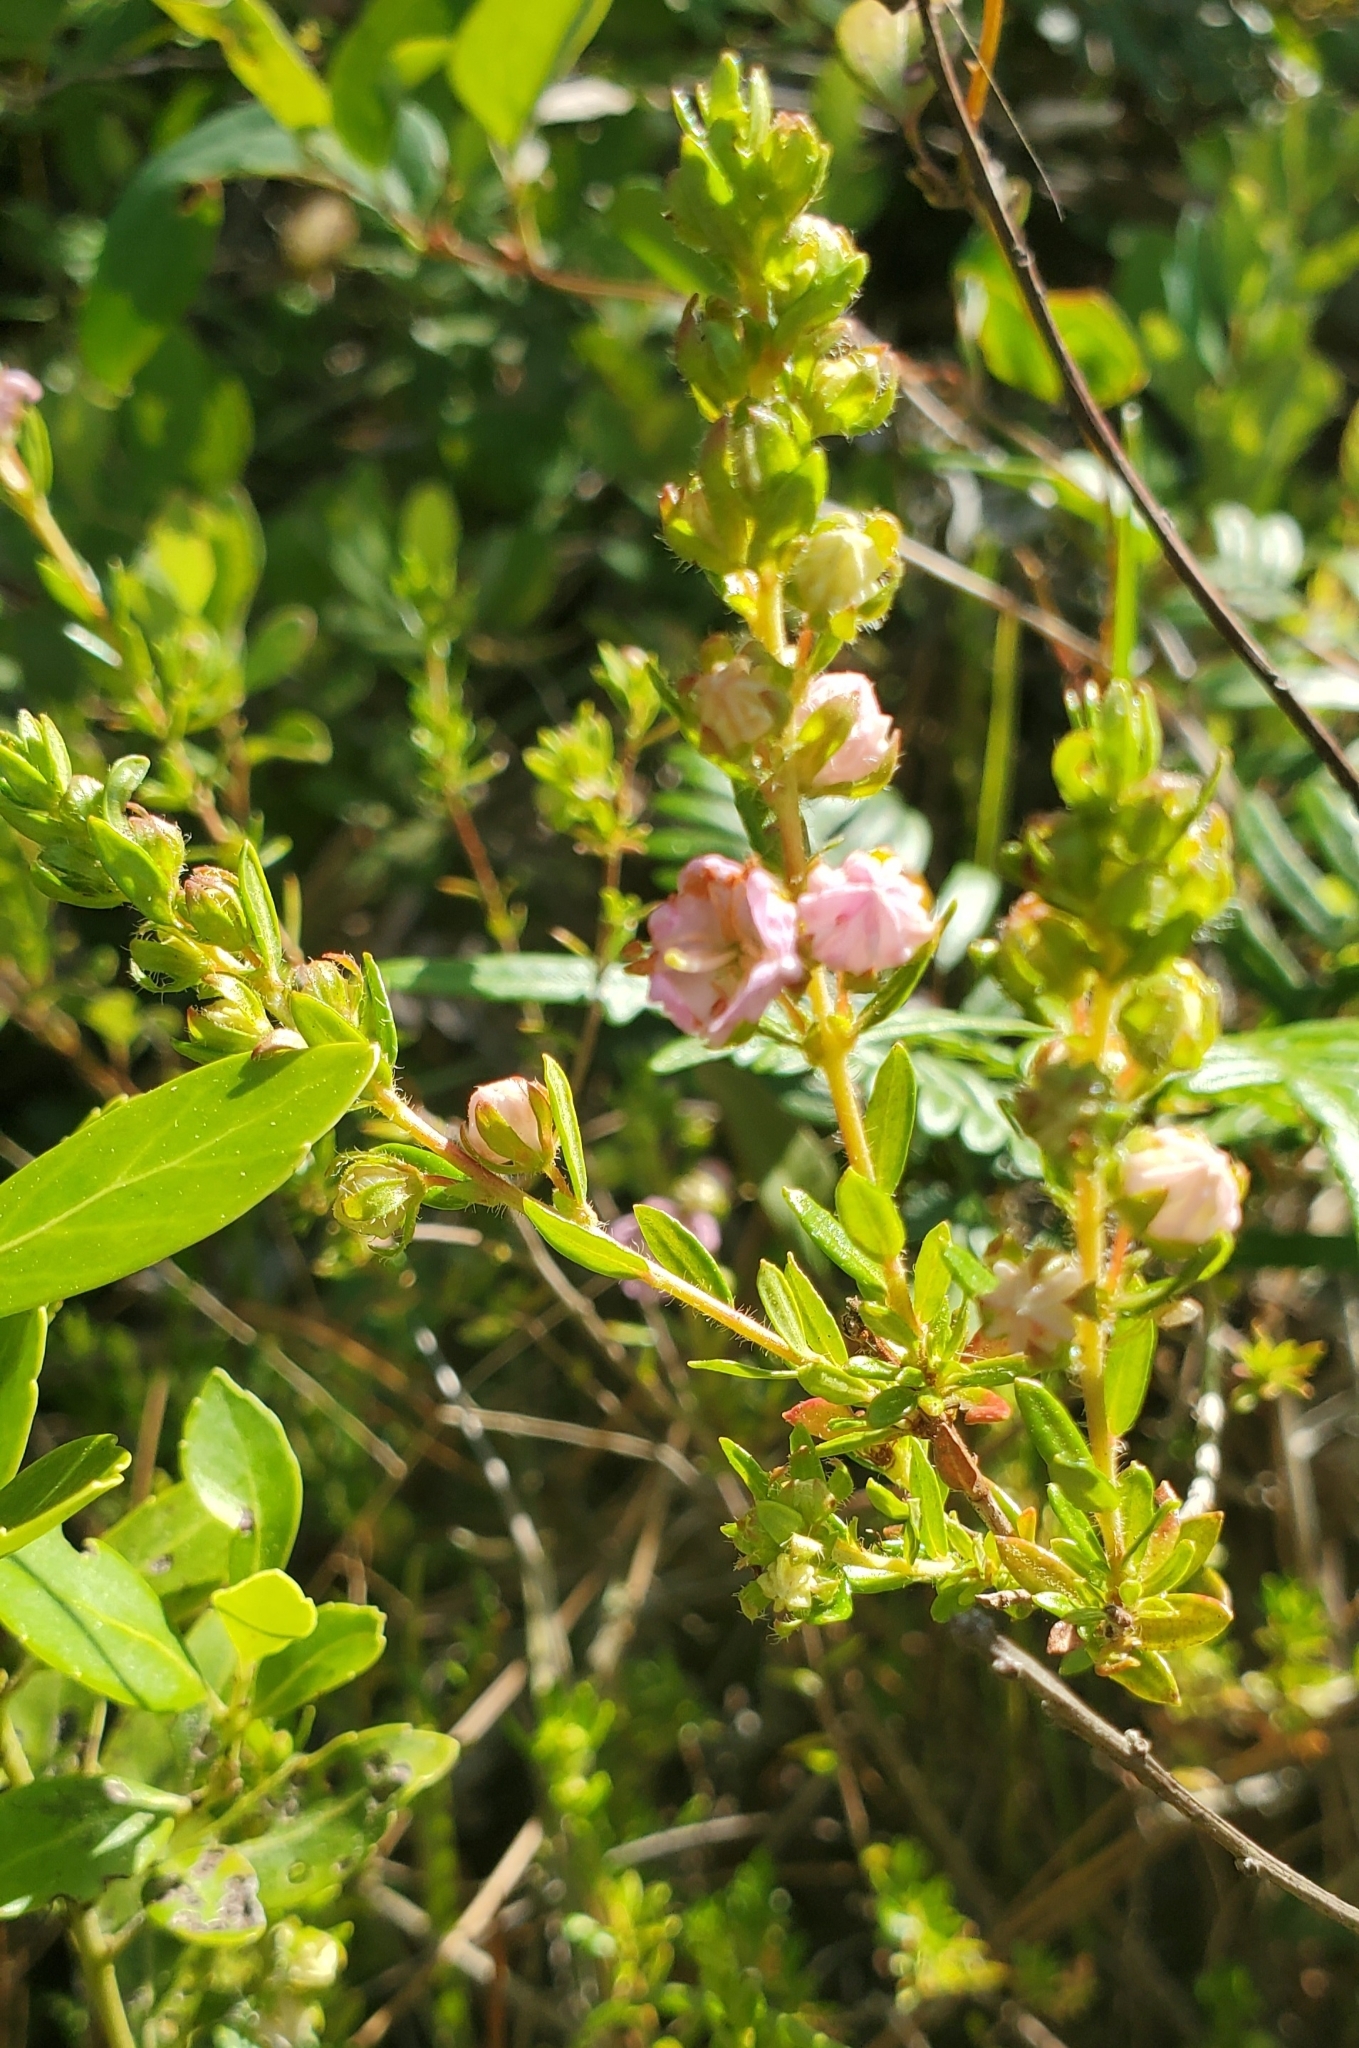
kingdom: Plantae
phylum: Tracheophyta
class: Magnoliopsida
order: Ericales
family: Ericaceae
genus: Kalmia
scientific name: Kalmia hirsuta
